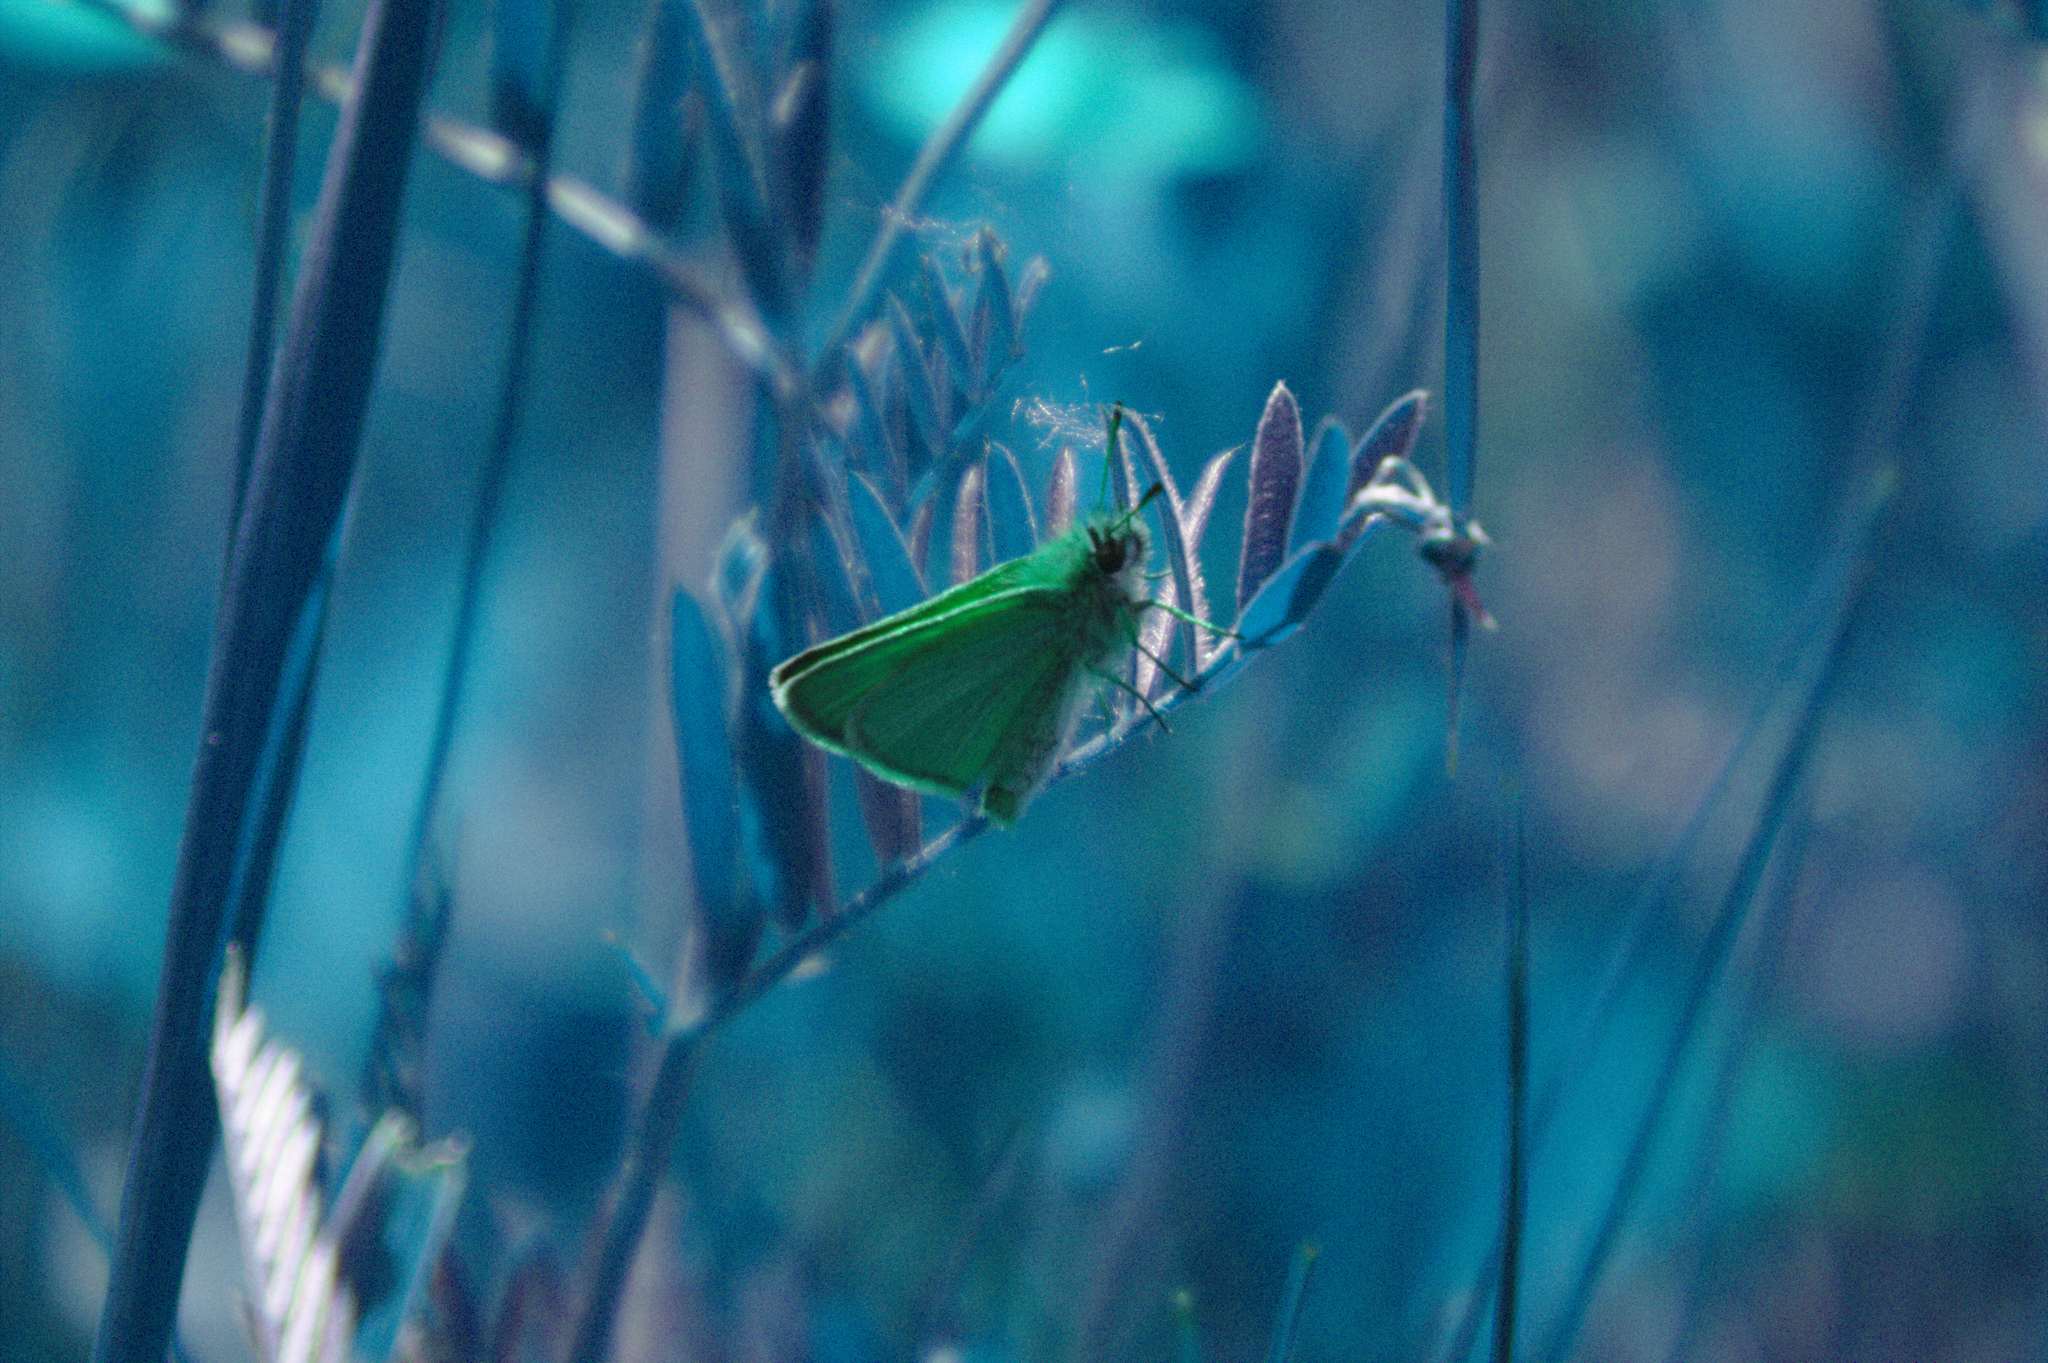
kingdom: Animalia
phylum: Arthropoda
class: Insecta
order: Lepidoptera
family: Hesperiidae
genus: Thymelicus
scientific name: Thymelicus lineola
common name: Essex skipper
